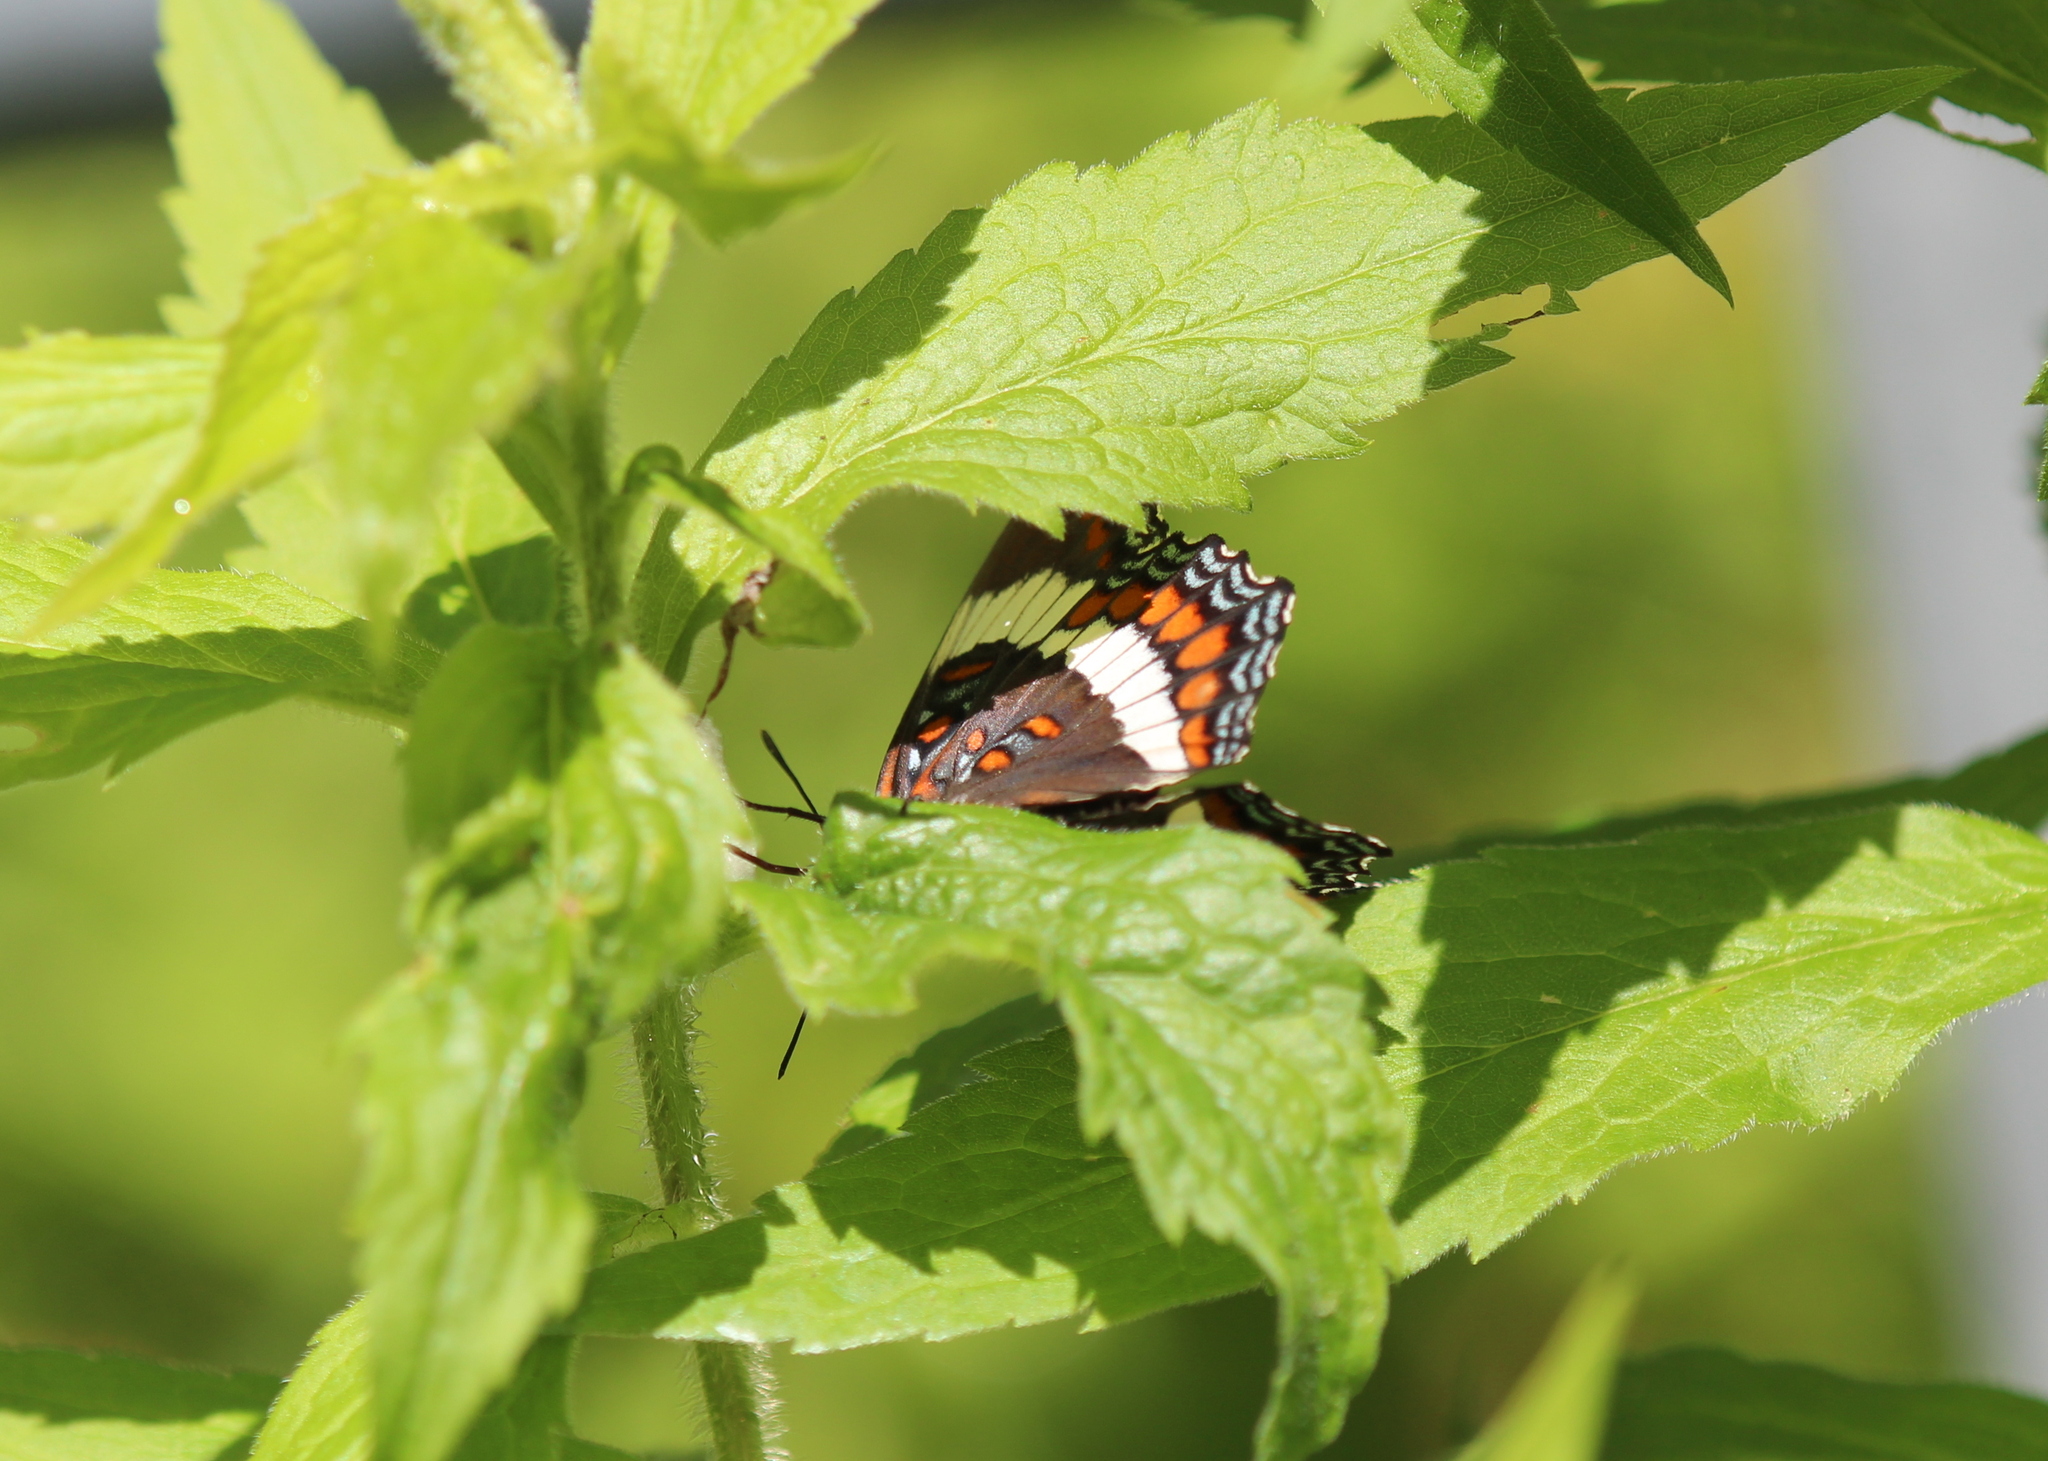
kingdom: Animalia
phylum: Arthropoda
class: Insecta
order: Lepidoptera
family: Nymphalidae
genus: Limenitis
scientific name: Limenitis arthemis
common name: Red-spotted admiral
